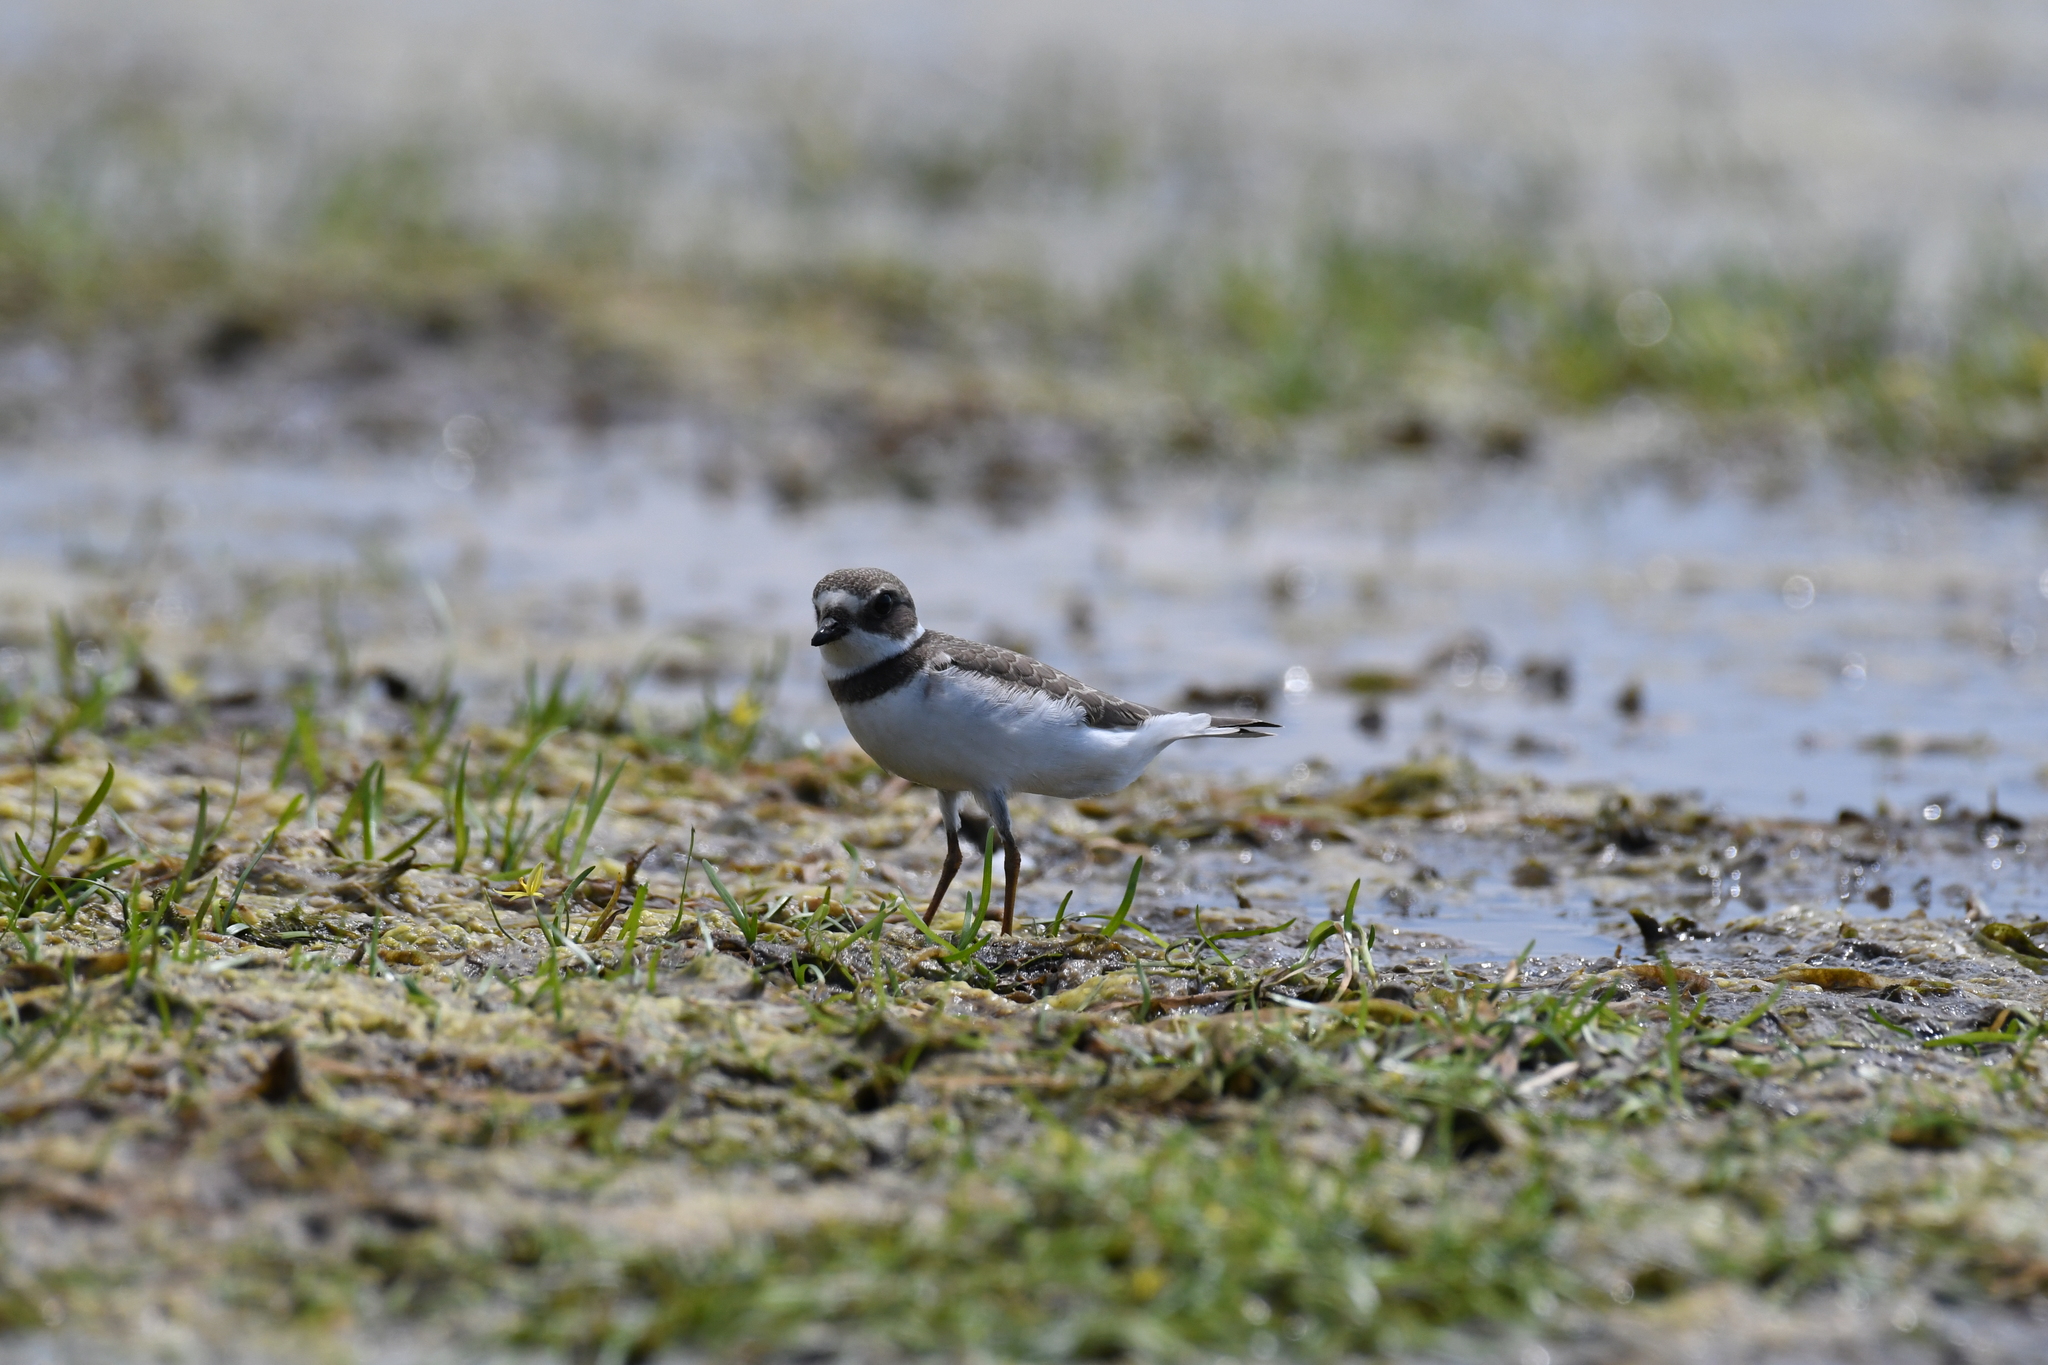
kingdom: Animalia
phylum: Chordata
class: Aves
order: Charadriiformes
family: Charadriidae
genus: Charadrius
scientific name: Charadrius semipalmatus
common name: Semipalmated plover
